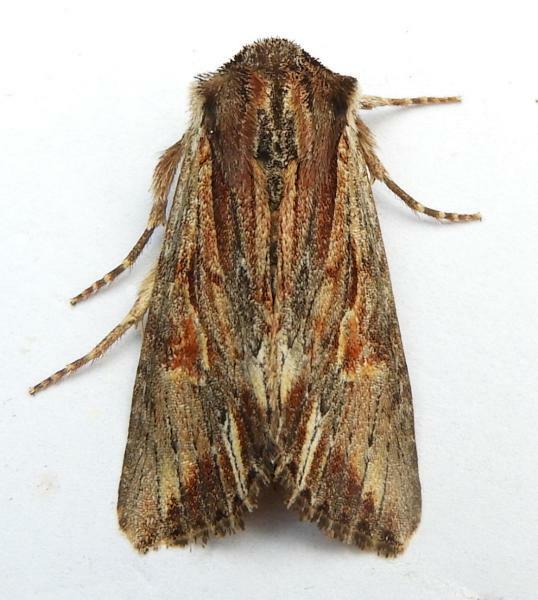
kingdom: Animalia
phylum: Arthropoda
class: Insecta
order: Lepidoptera
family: Noctuidae
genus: Achatia
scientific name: Achatia evicta
